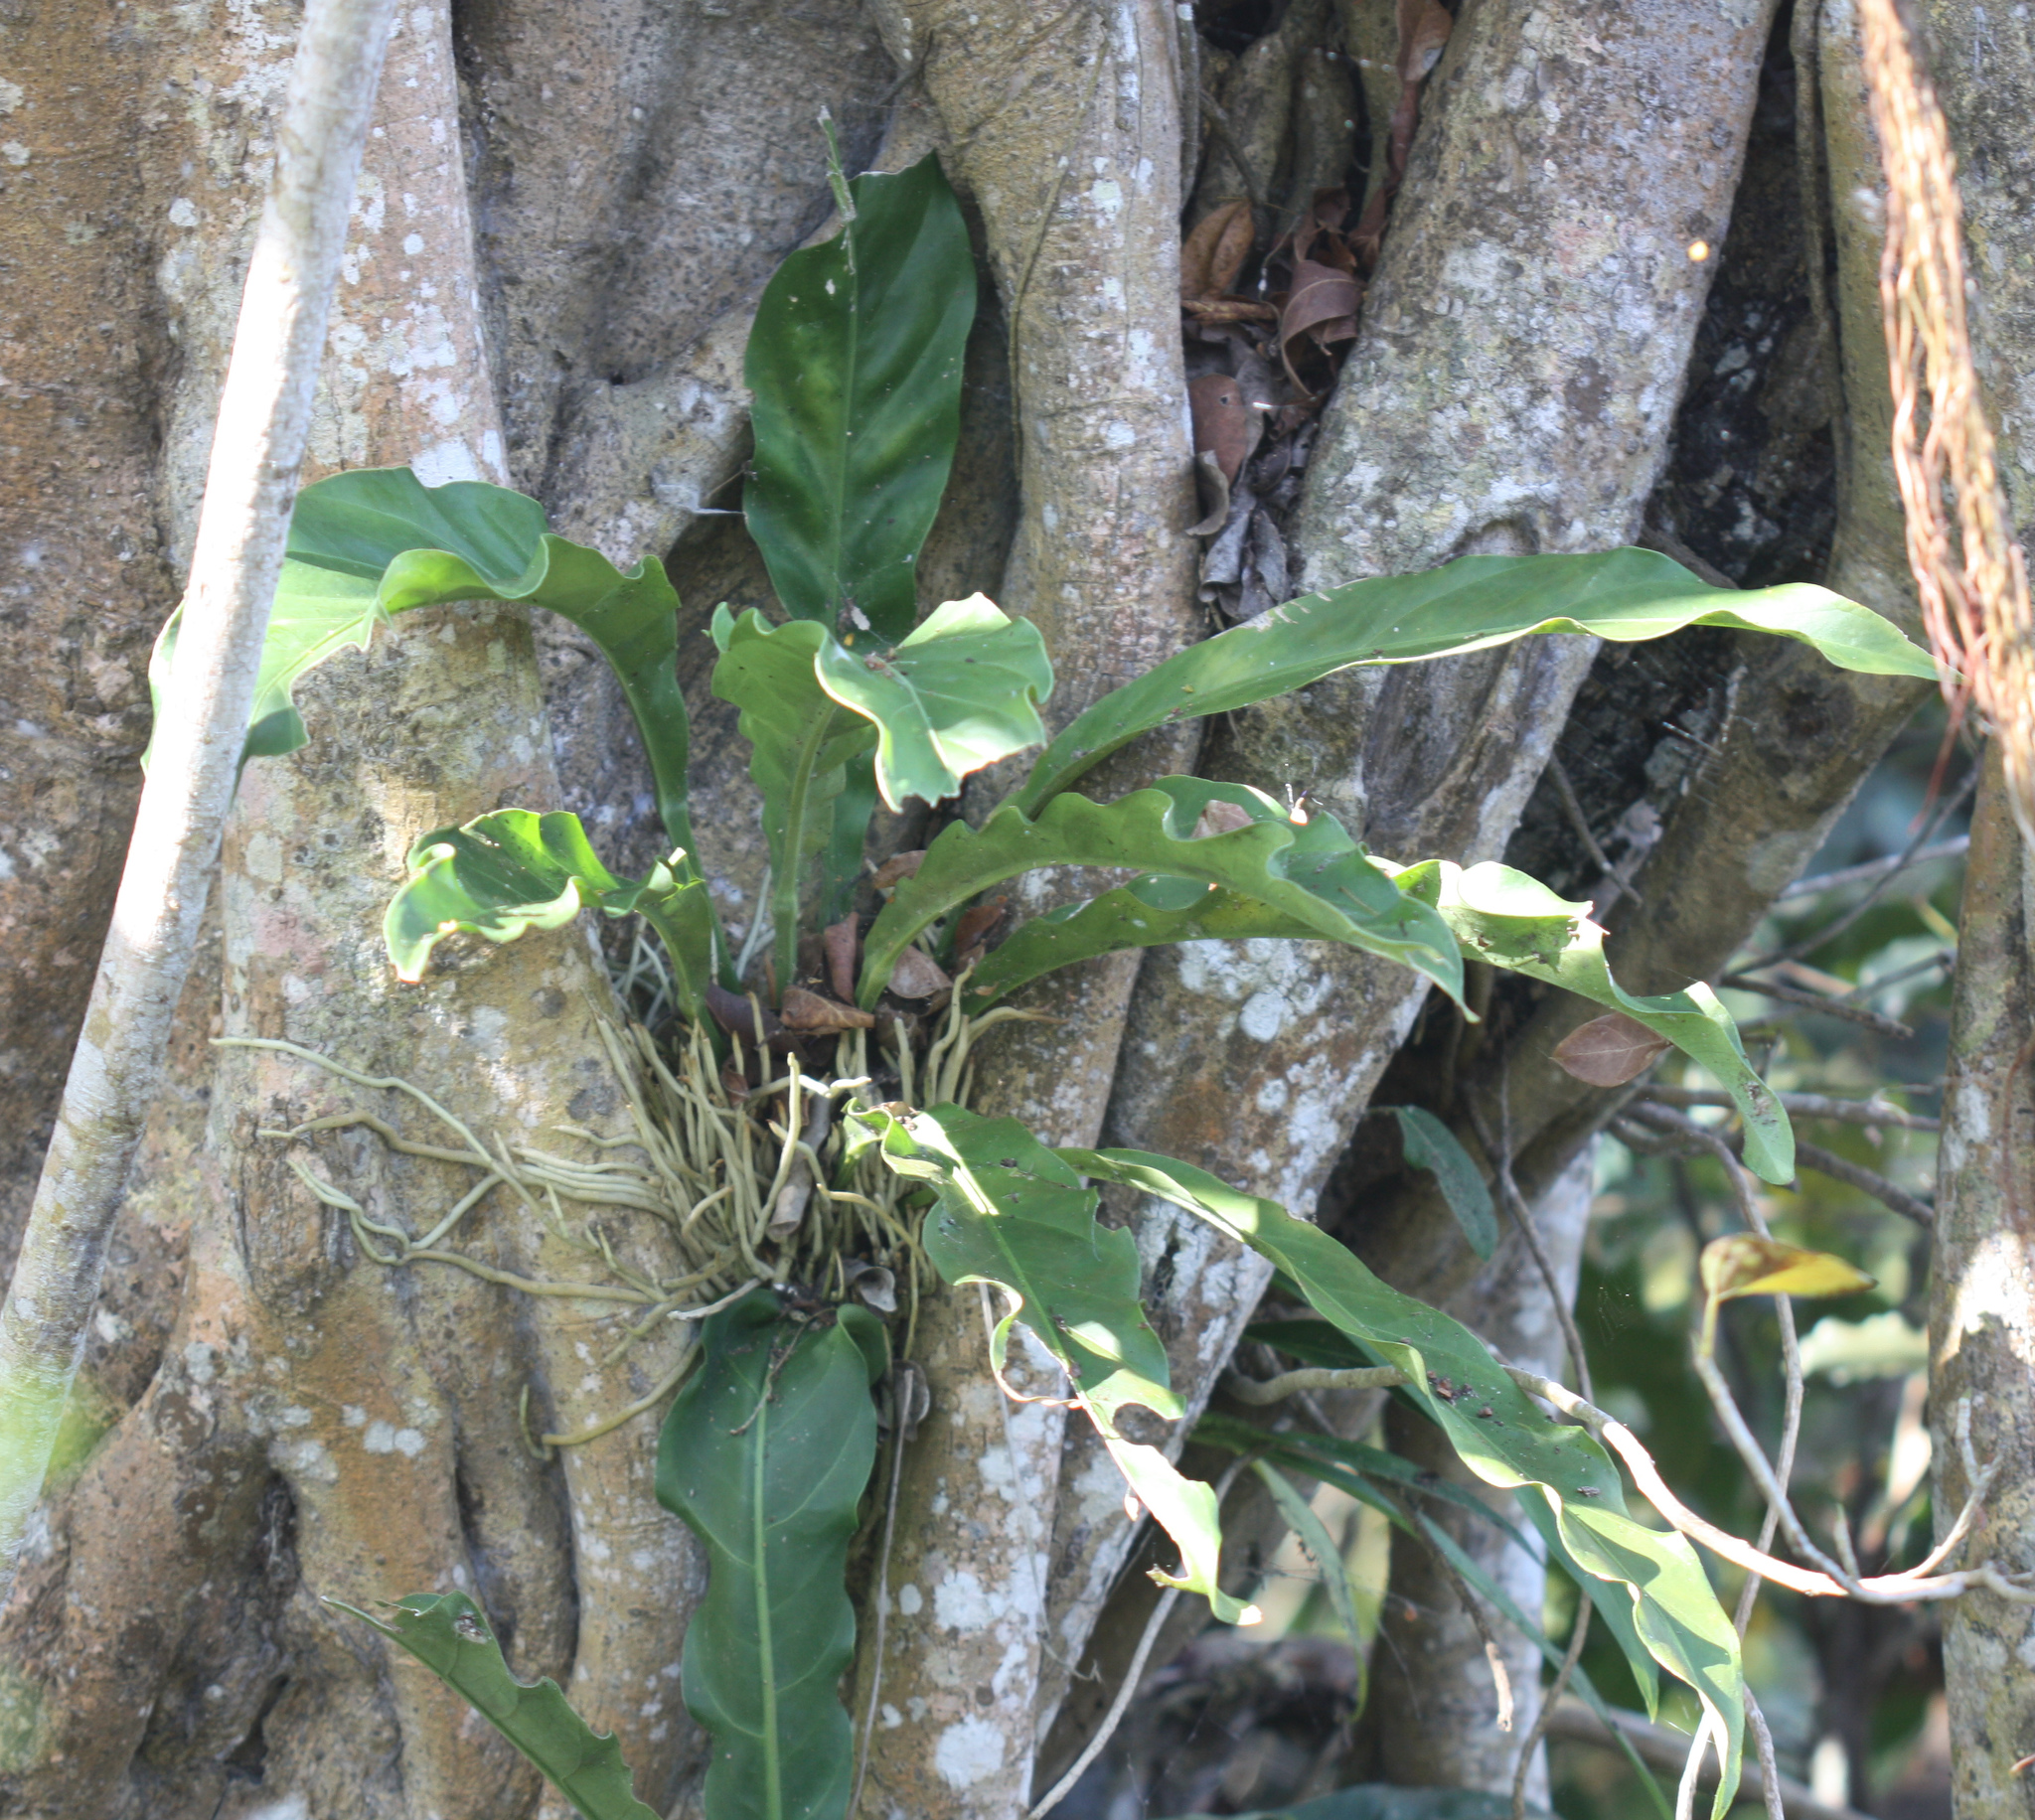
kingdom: Plantae
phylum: Tracheophyta
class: Liliopsida
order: Alismatales
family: Araceae
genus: Anthurium
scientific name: Anthurium schlechtendalii
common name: Laceleaf
